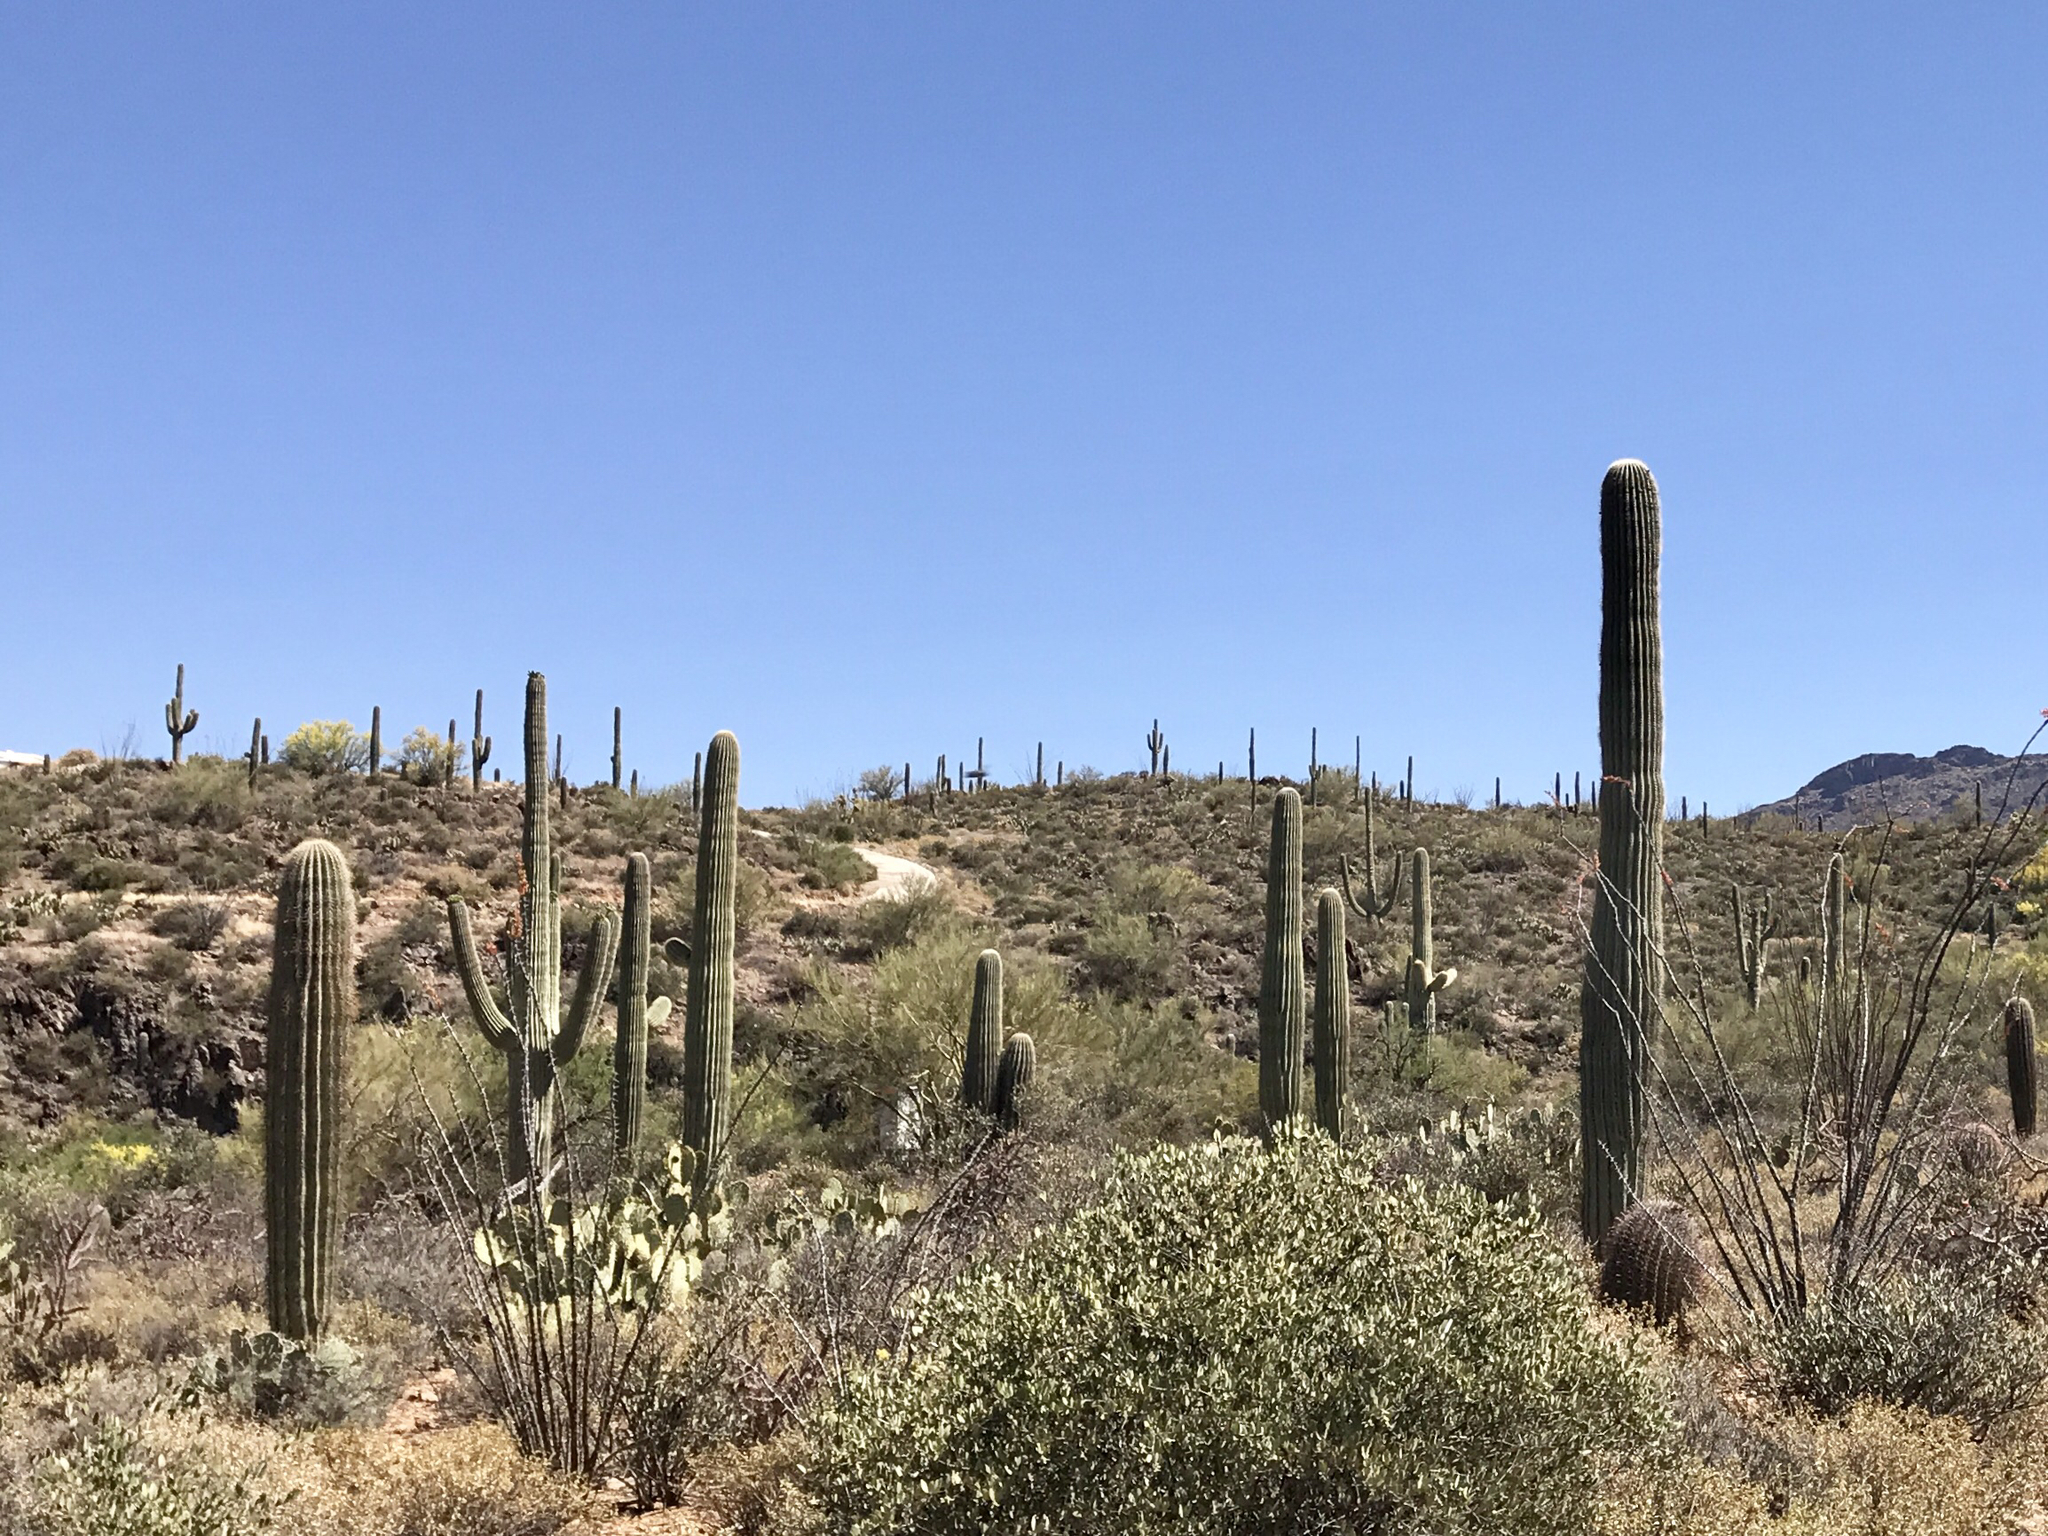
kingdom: Plantae
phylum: Tracheophyta
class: Magnoliopsida
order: Caryophyllales
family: Cactaceae
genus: Carnegiea
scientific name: Carnegiea gigantea
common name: Saguaro
